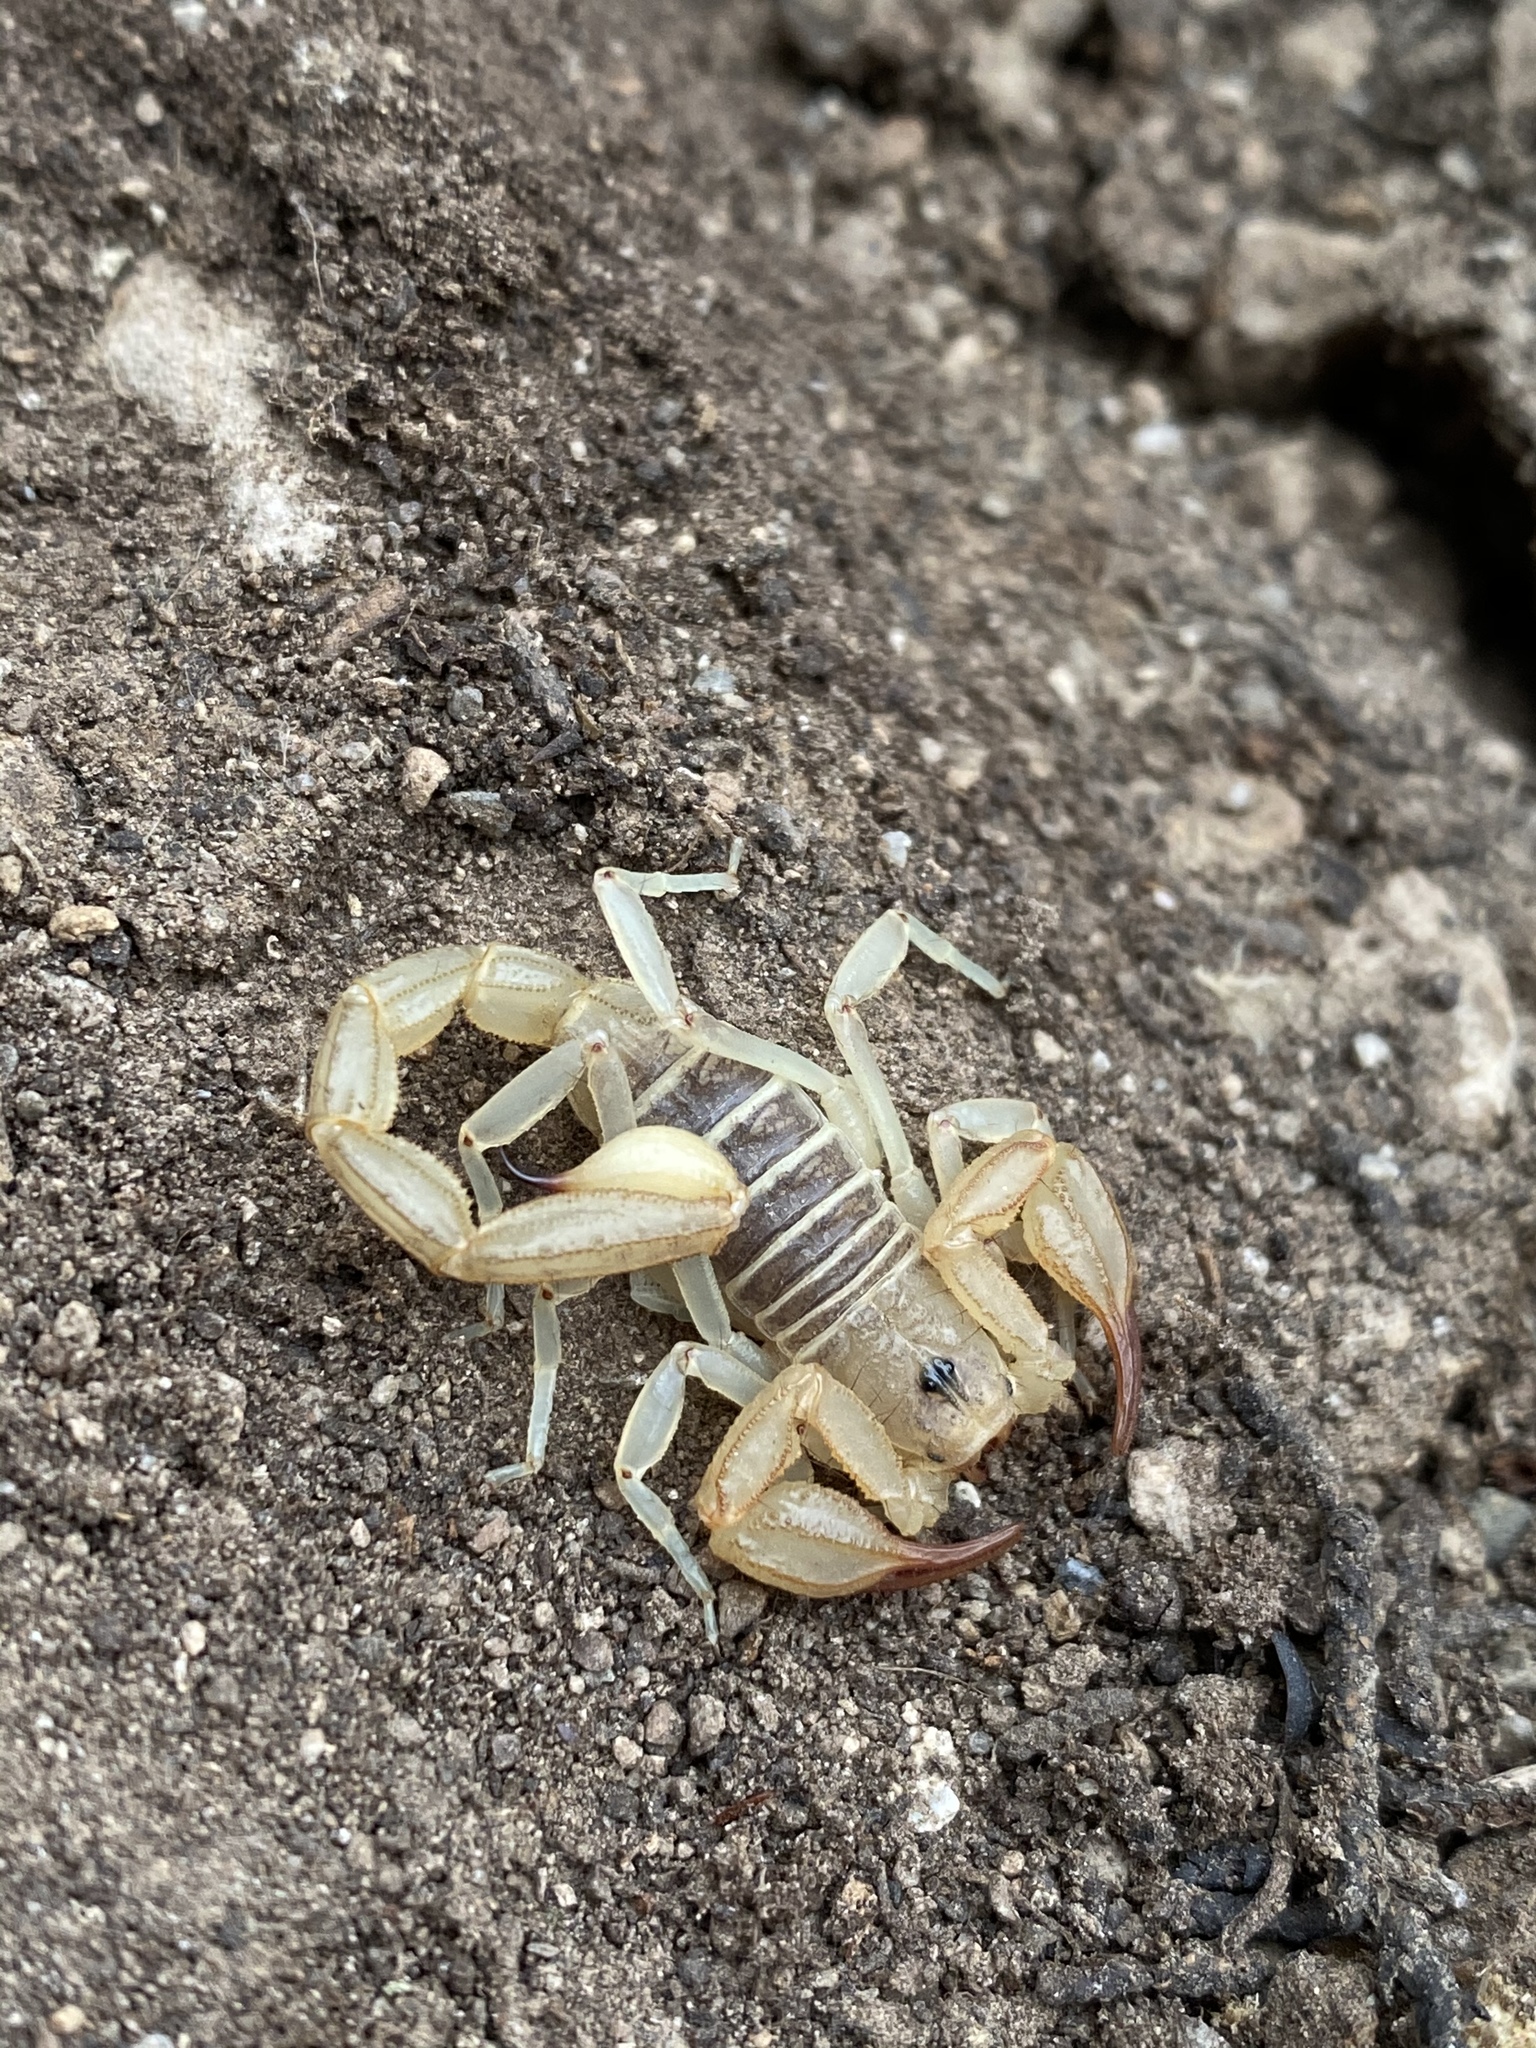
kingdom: Animalia
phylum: Arthropoda
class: Arachnida
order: Scorpiones
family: Vaejovidae
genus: Paruroctonus
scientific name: Paruroctonus boreus
